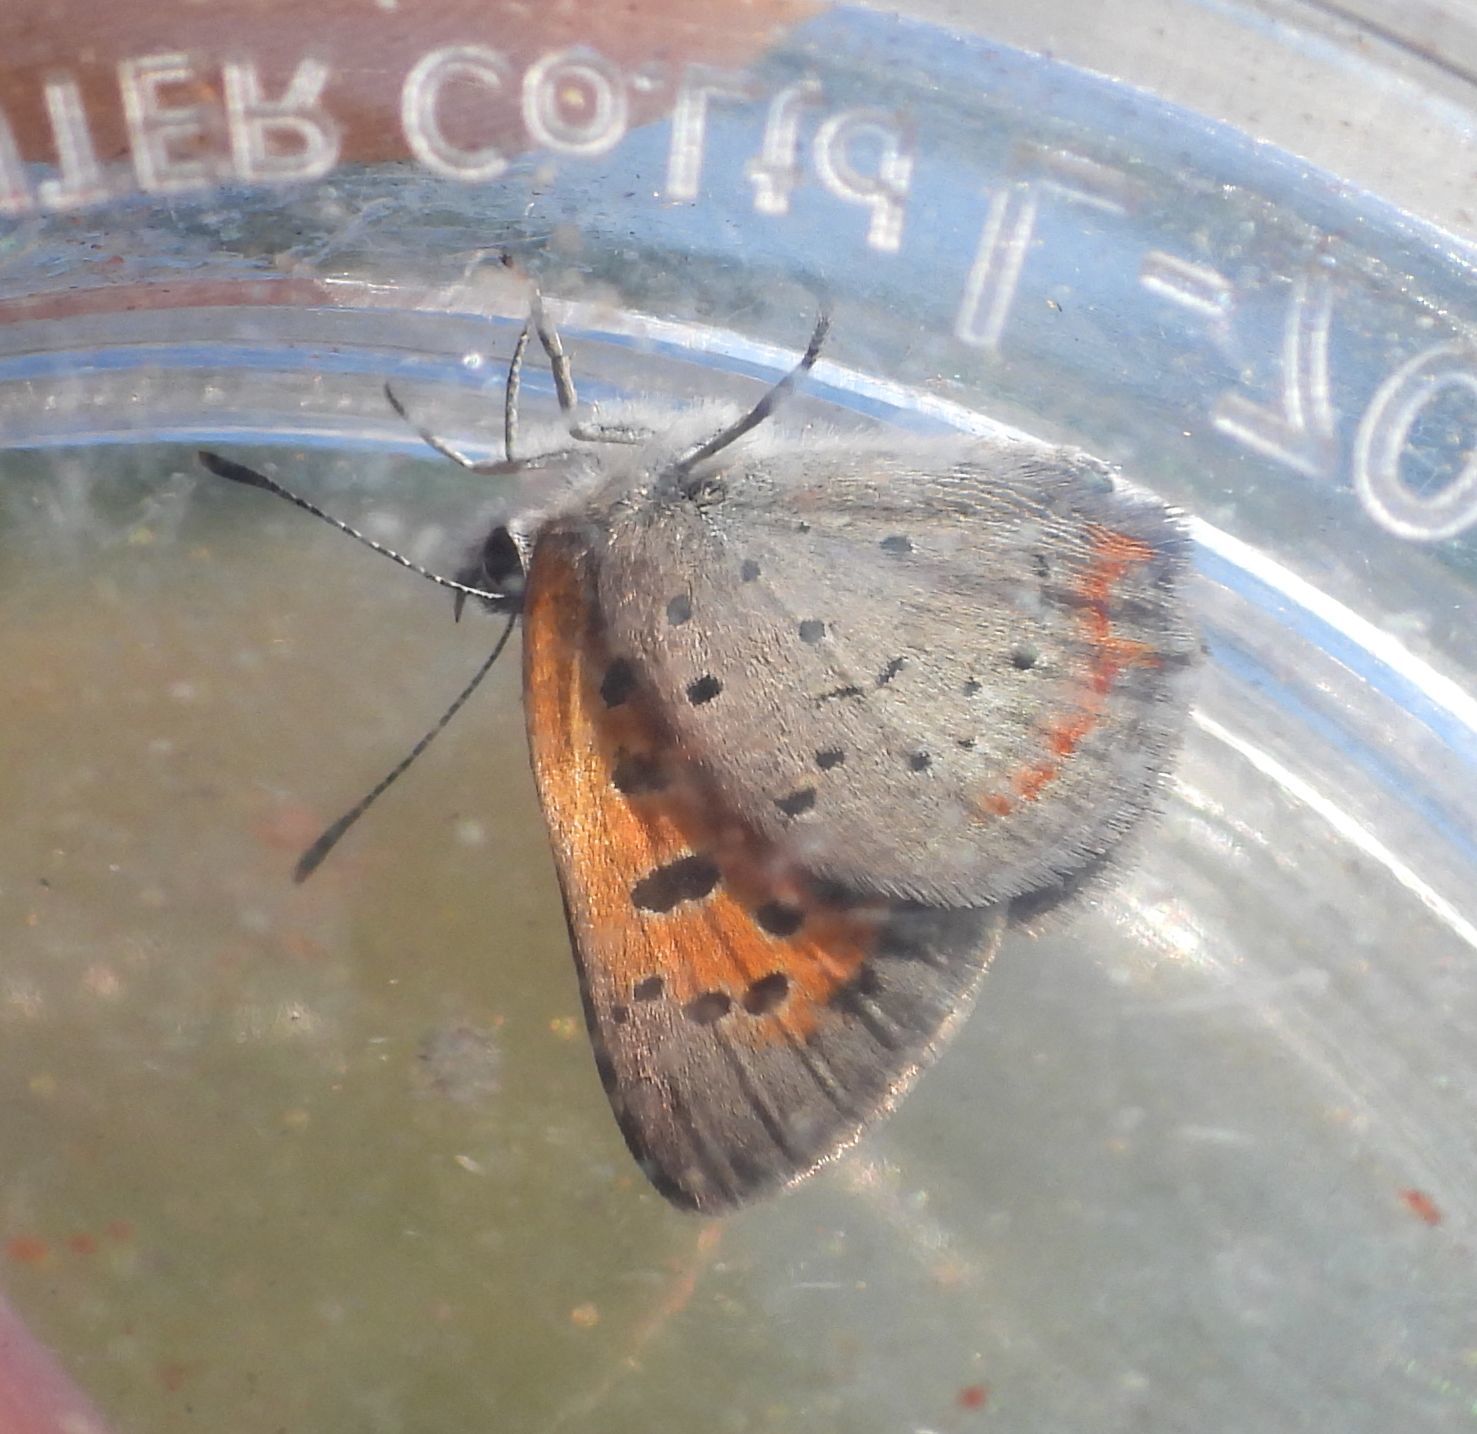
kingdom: Animalia
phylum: Arthropoda
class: Insecta
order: Lepidoptera
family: Lycaenidae
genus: Lycaena
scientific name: Lycaena hypophlaeas
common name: American copper
